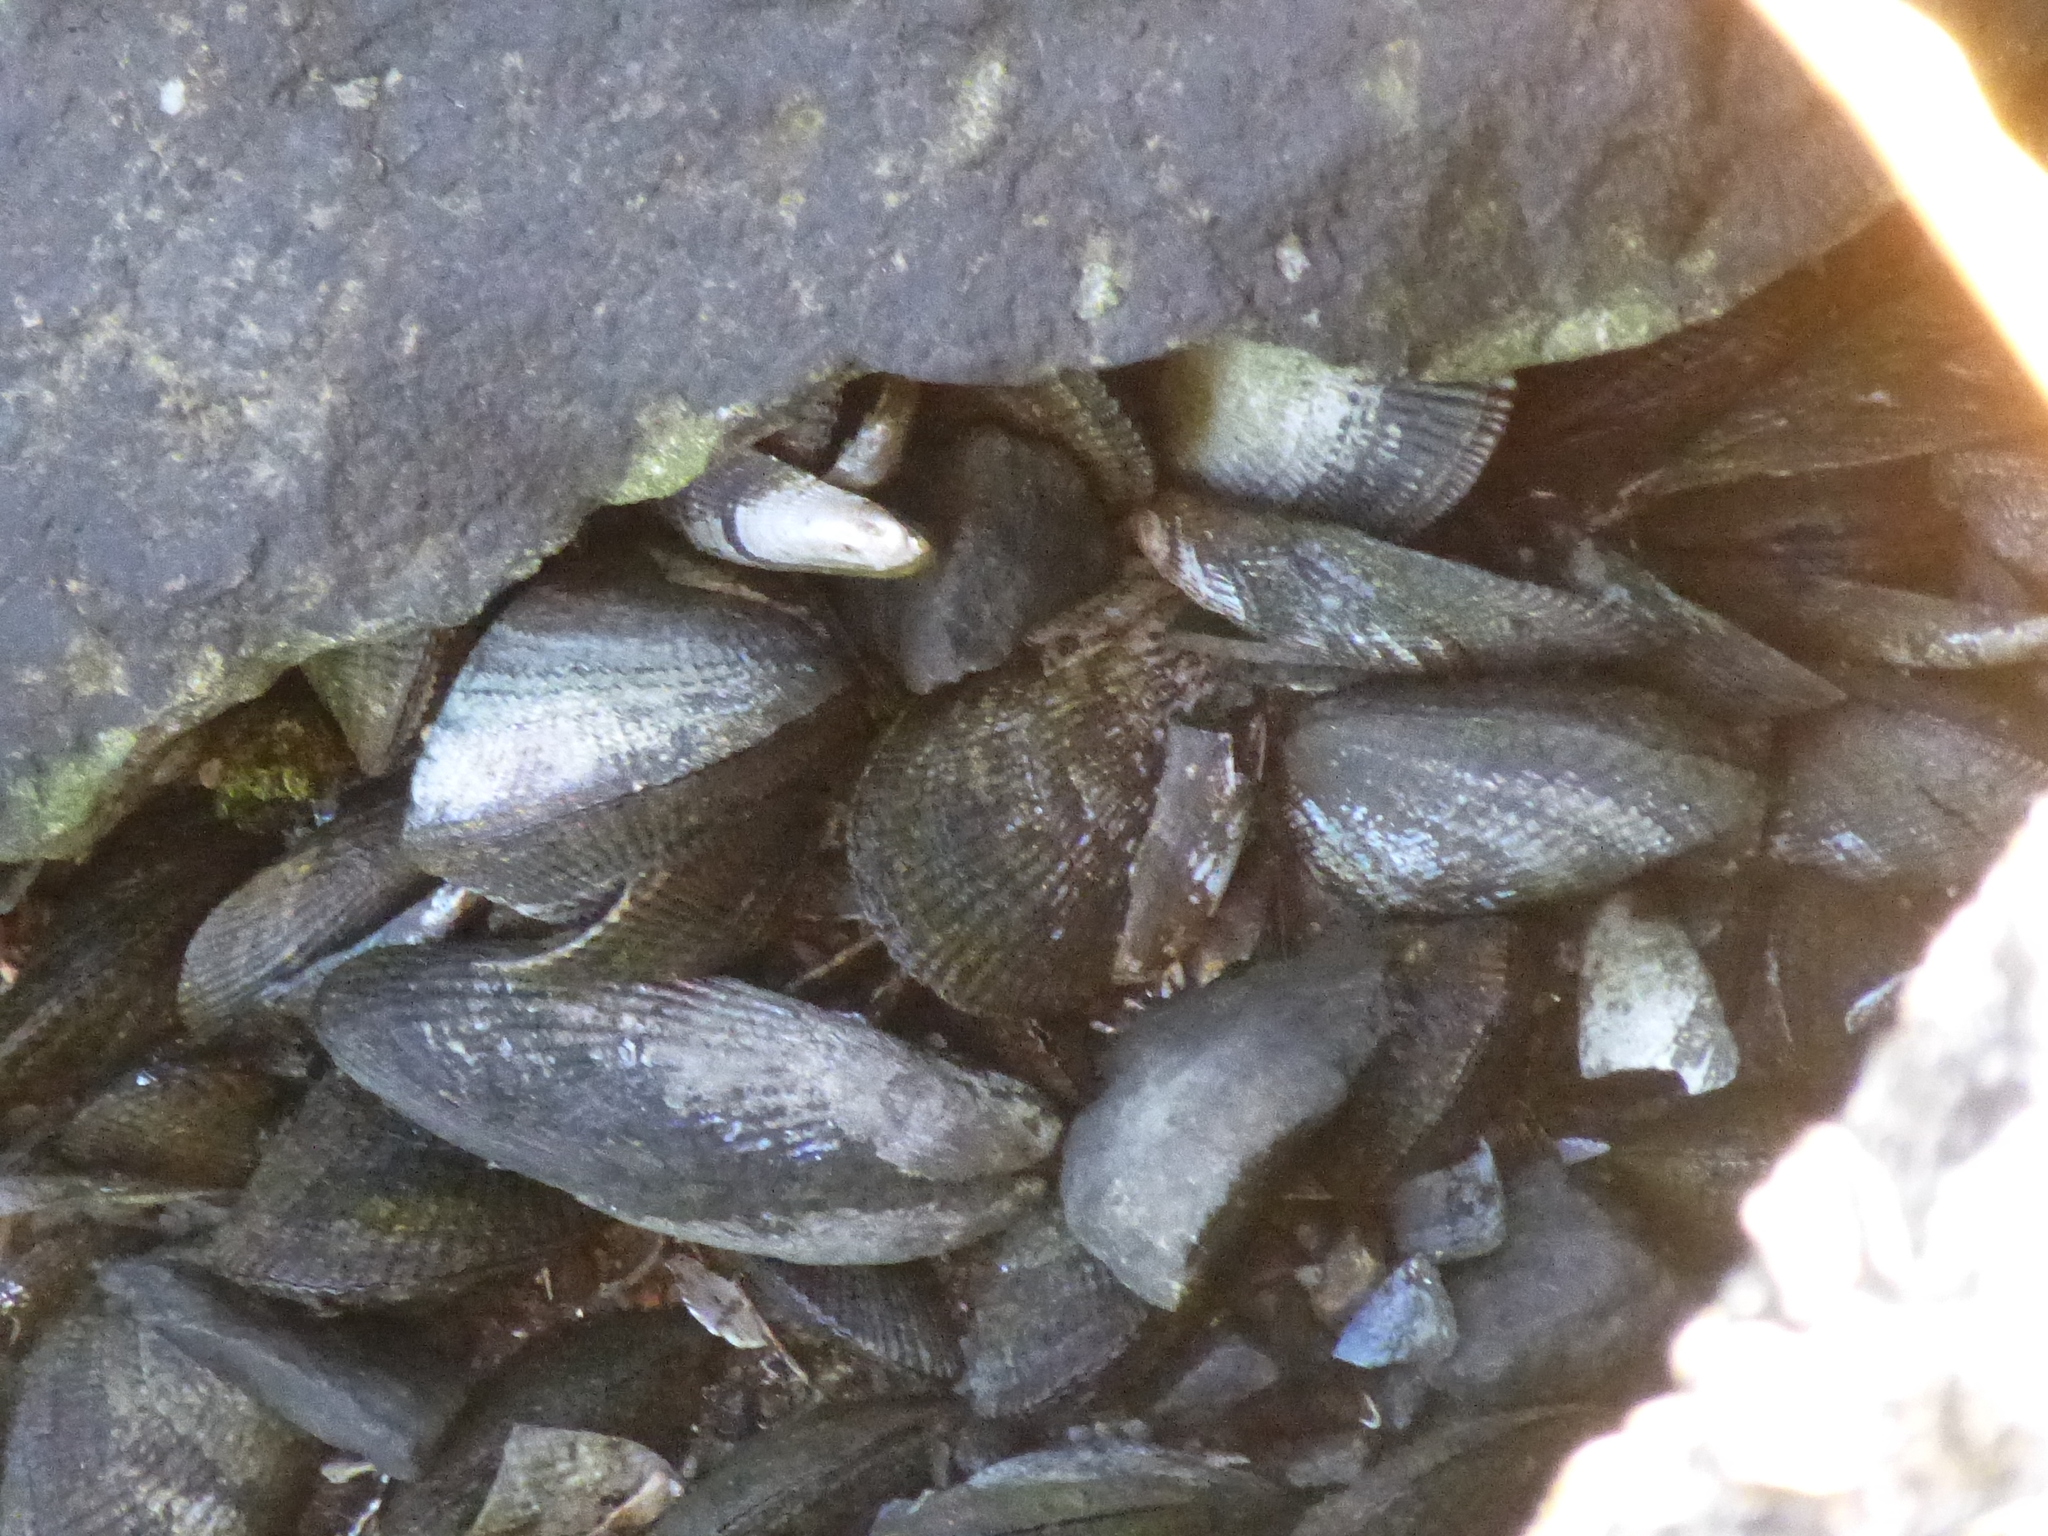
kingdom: Animalia
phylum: Mollusca
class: Bivalvia
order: Mytilida
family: Mytilidae
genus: Geukensia
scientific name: Geukensia demissa
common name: Ribbed mussel
